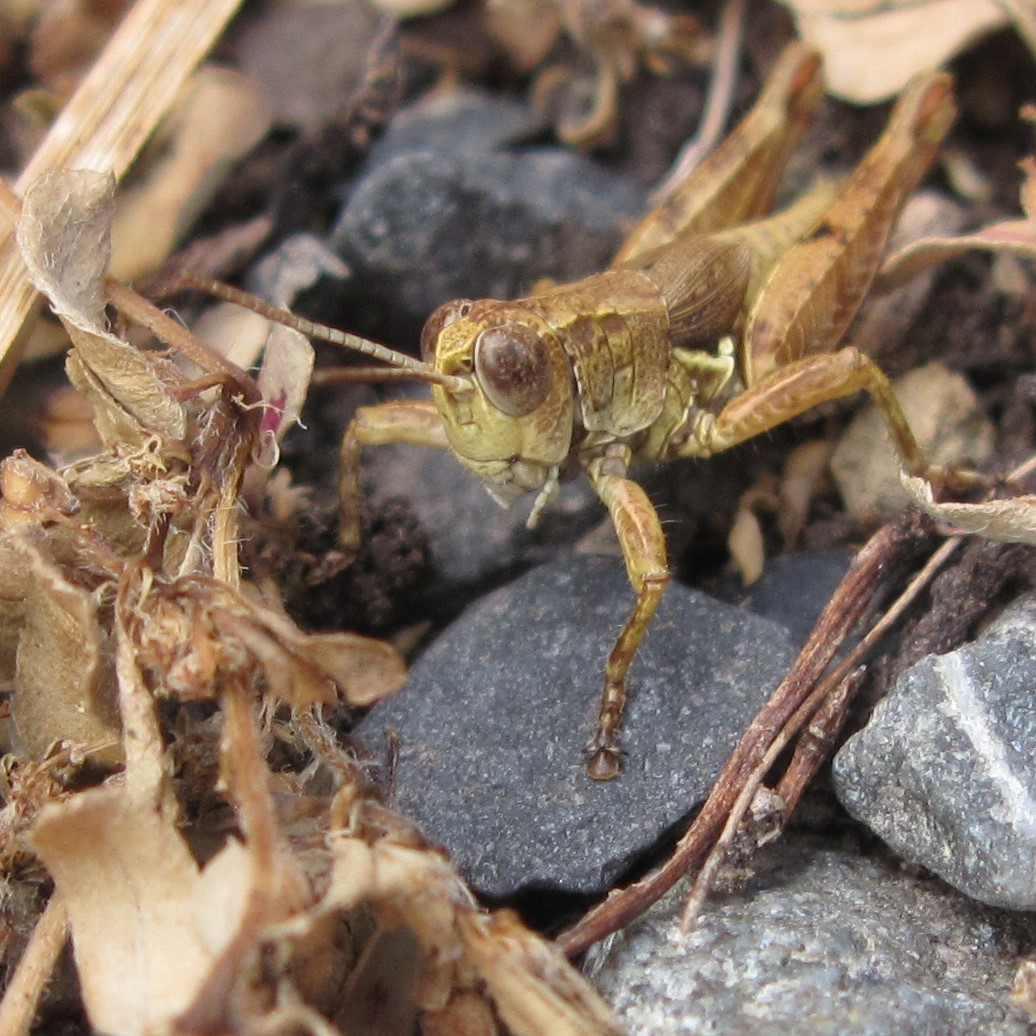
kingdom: Animalia
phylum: Arthropoda
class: Insecta
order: Orthoptera
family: Acrididae
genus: Phaulacridium
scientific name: Phaulacridium marginale
